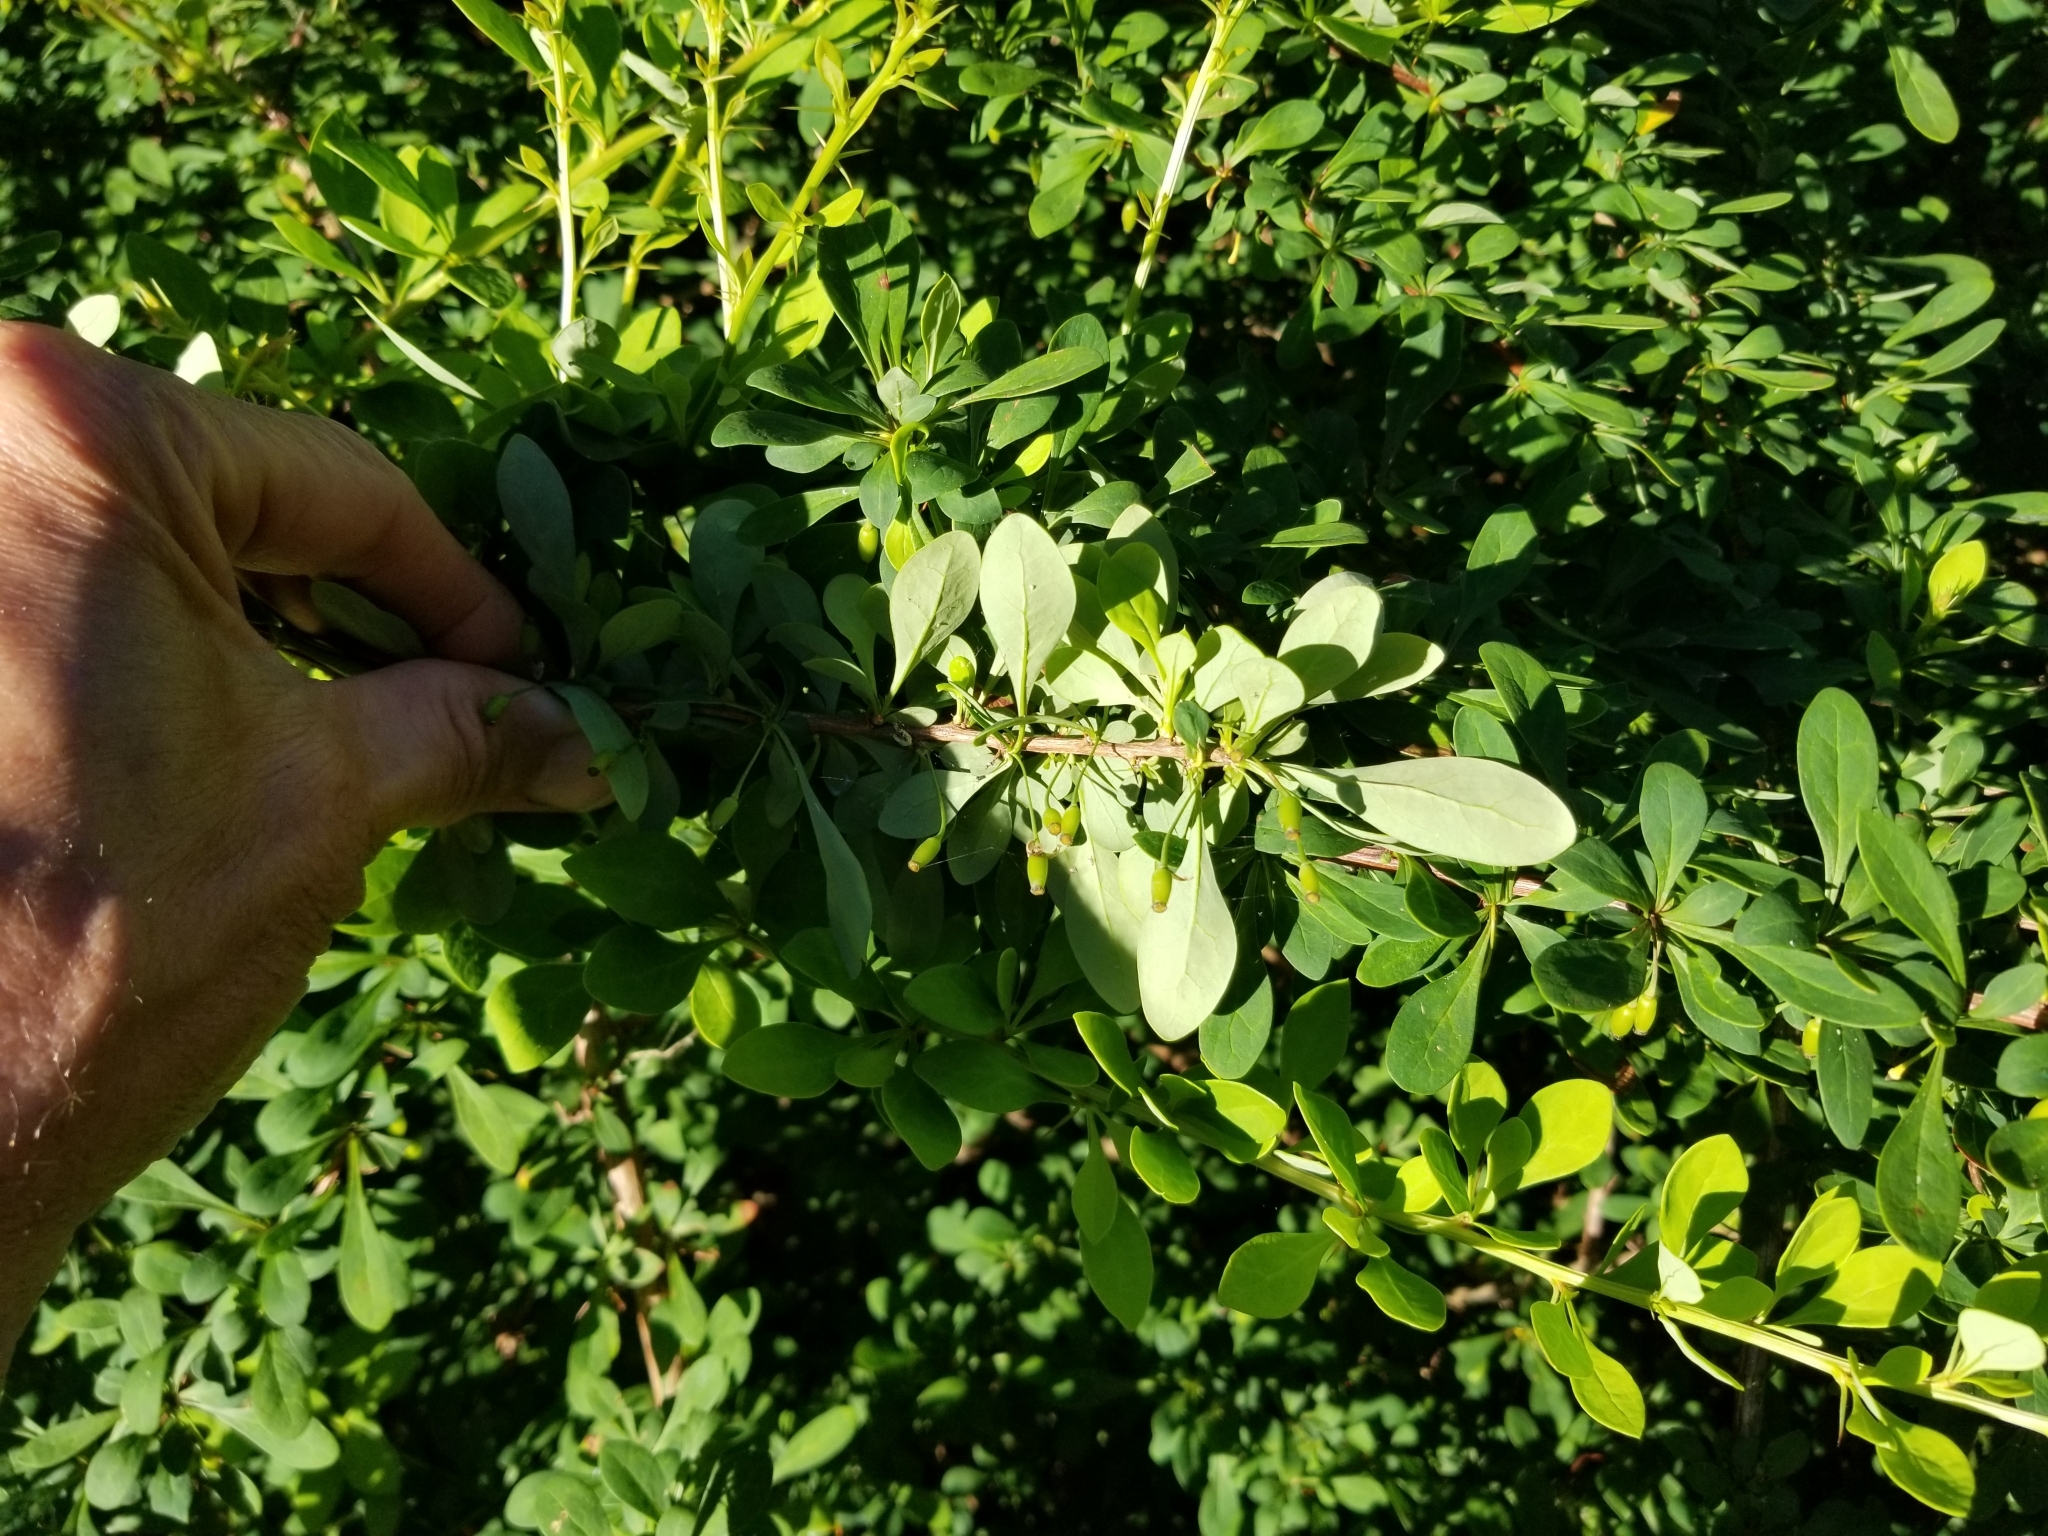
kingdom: Plantae
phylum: Tracheophyta
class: Magnoliopsida
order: Ranunculales
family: Berberidaceae
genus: Berberis
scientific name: Berberis thunbergii
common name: Japanese barberry
